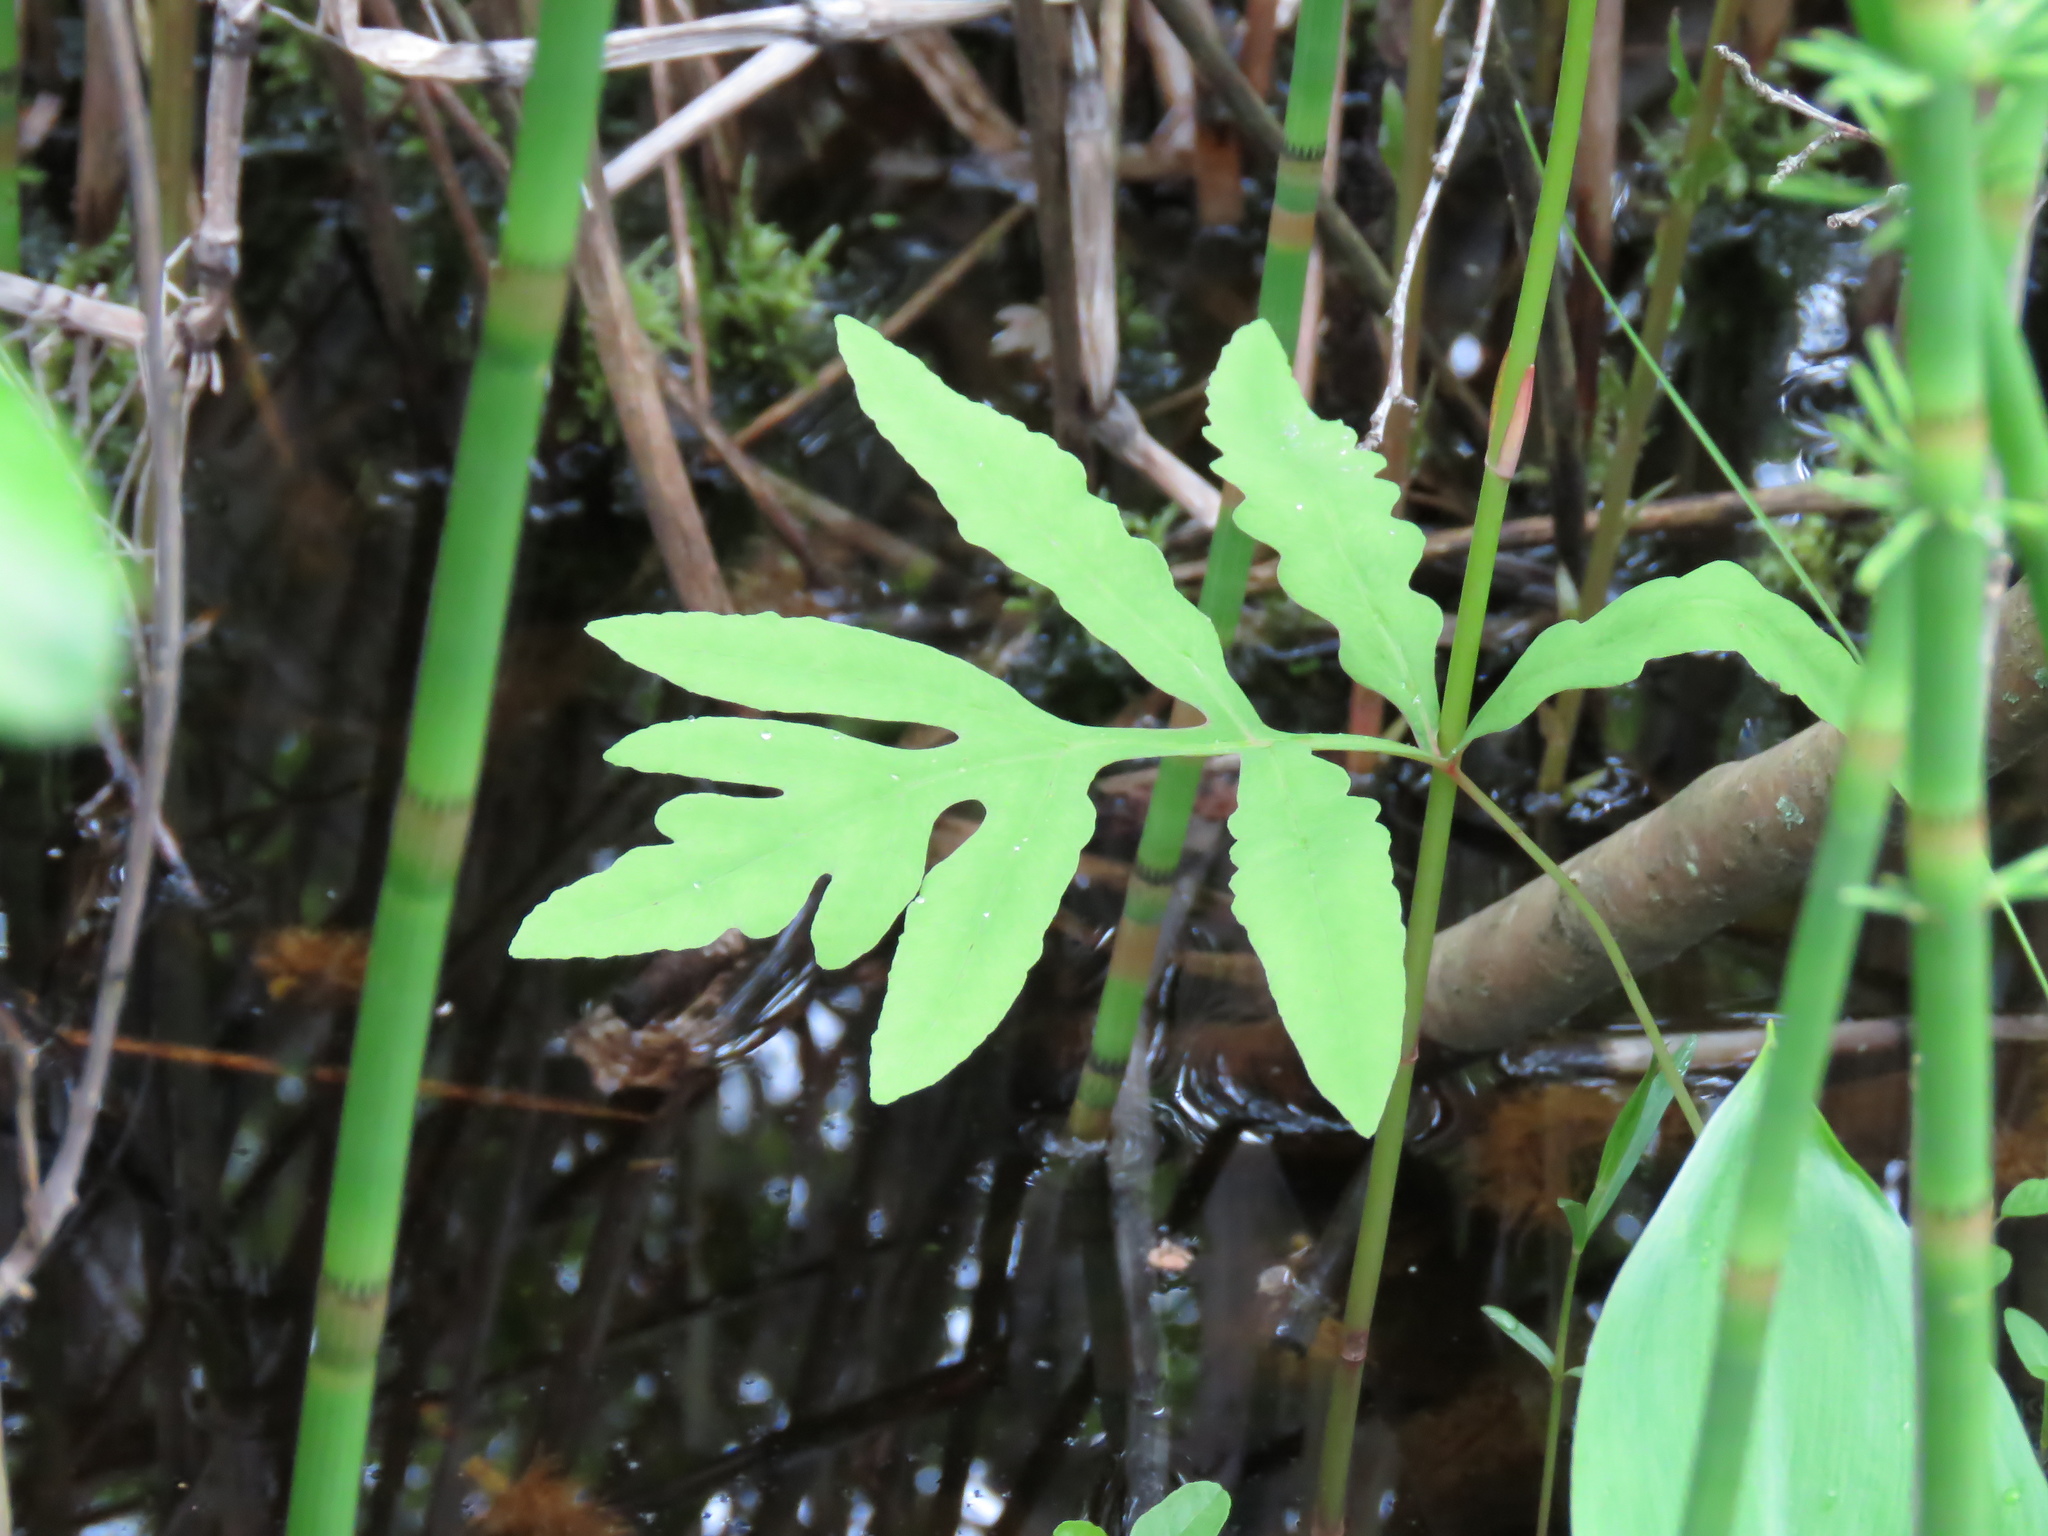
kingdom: Plantae
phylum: Tracheophyta
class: Polypodiopsida
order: Polypodiales
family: Onocleaceae
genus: Onoclea
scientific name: Onoclea sensibilis
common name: Sensitive fern
